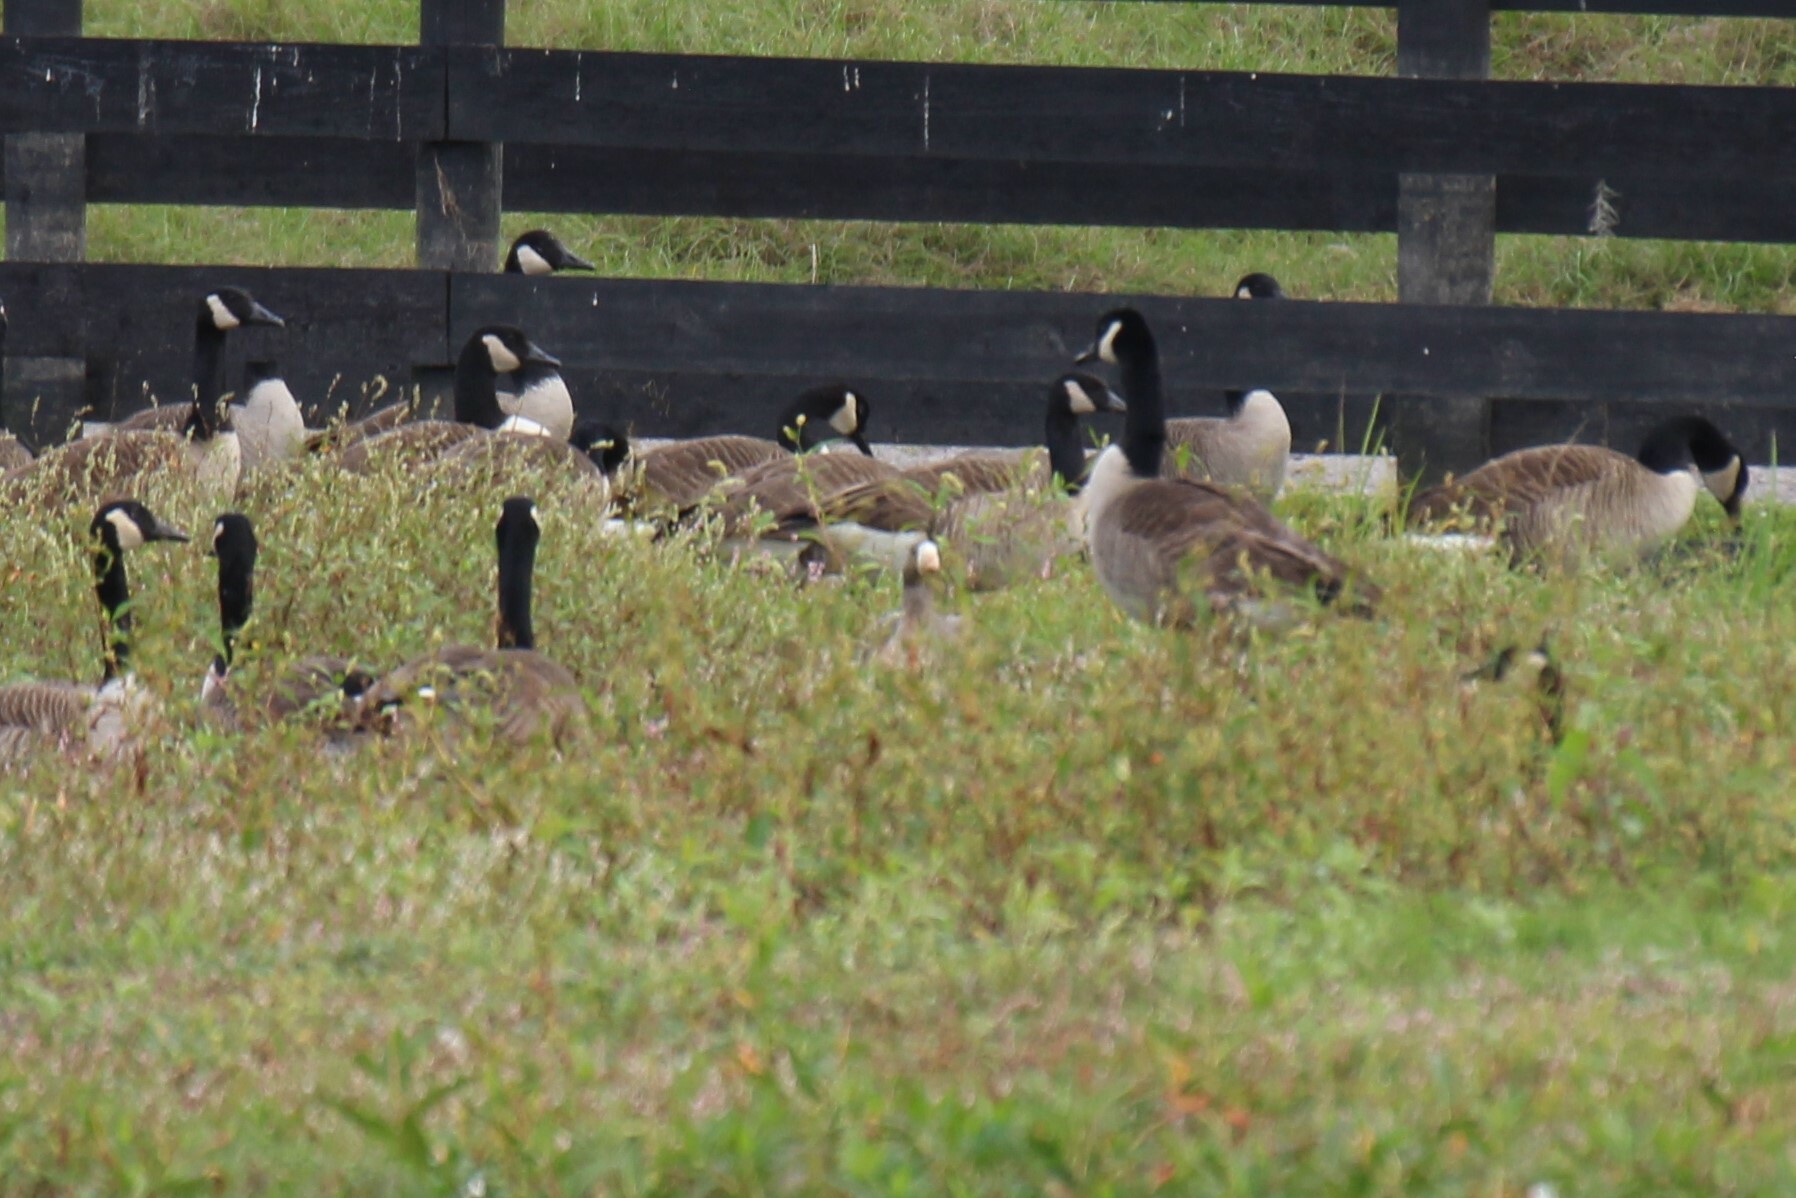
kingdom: Animalia
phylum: Chordata
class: Aves
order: Anseriformes
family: Anatidae
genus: Anser
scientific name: Anser albifrons
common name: Greater white-fronted goose
